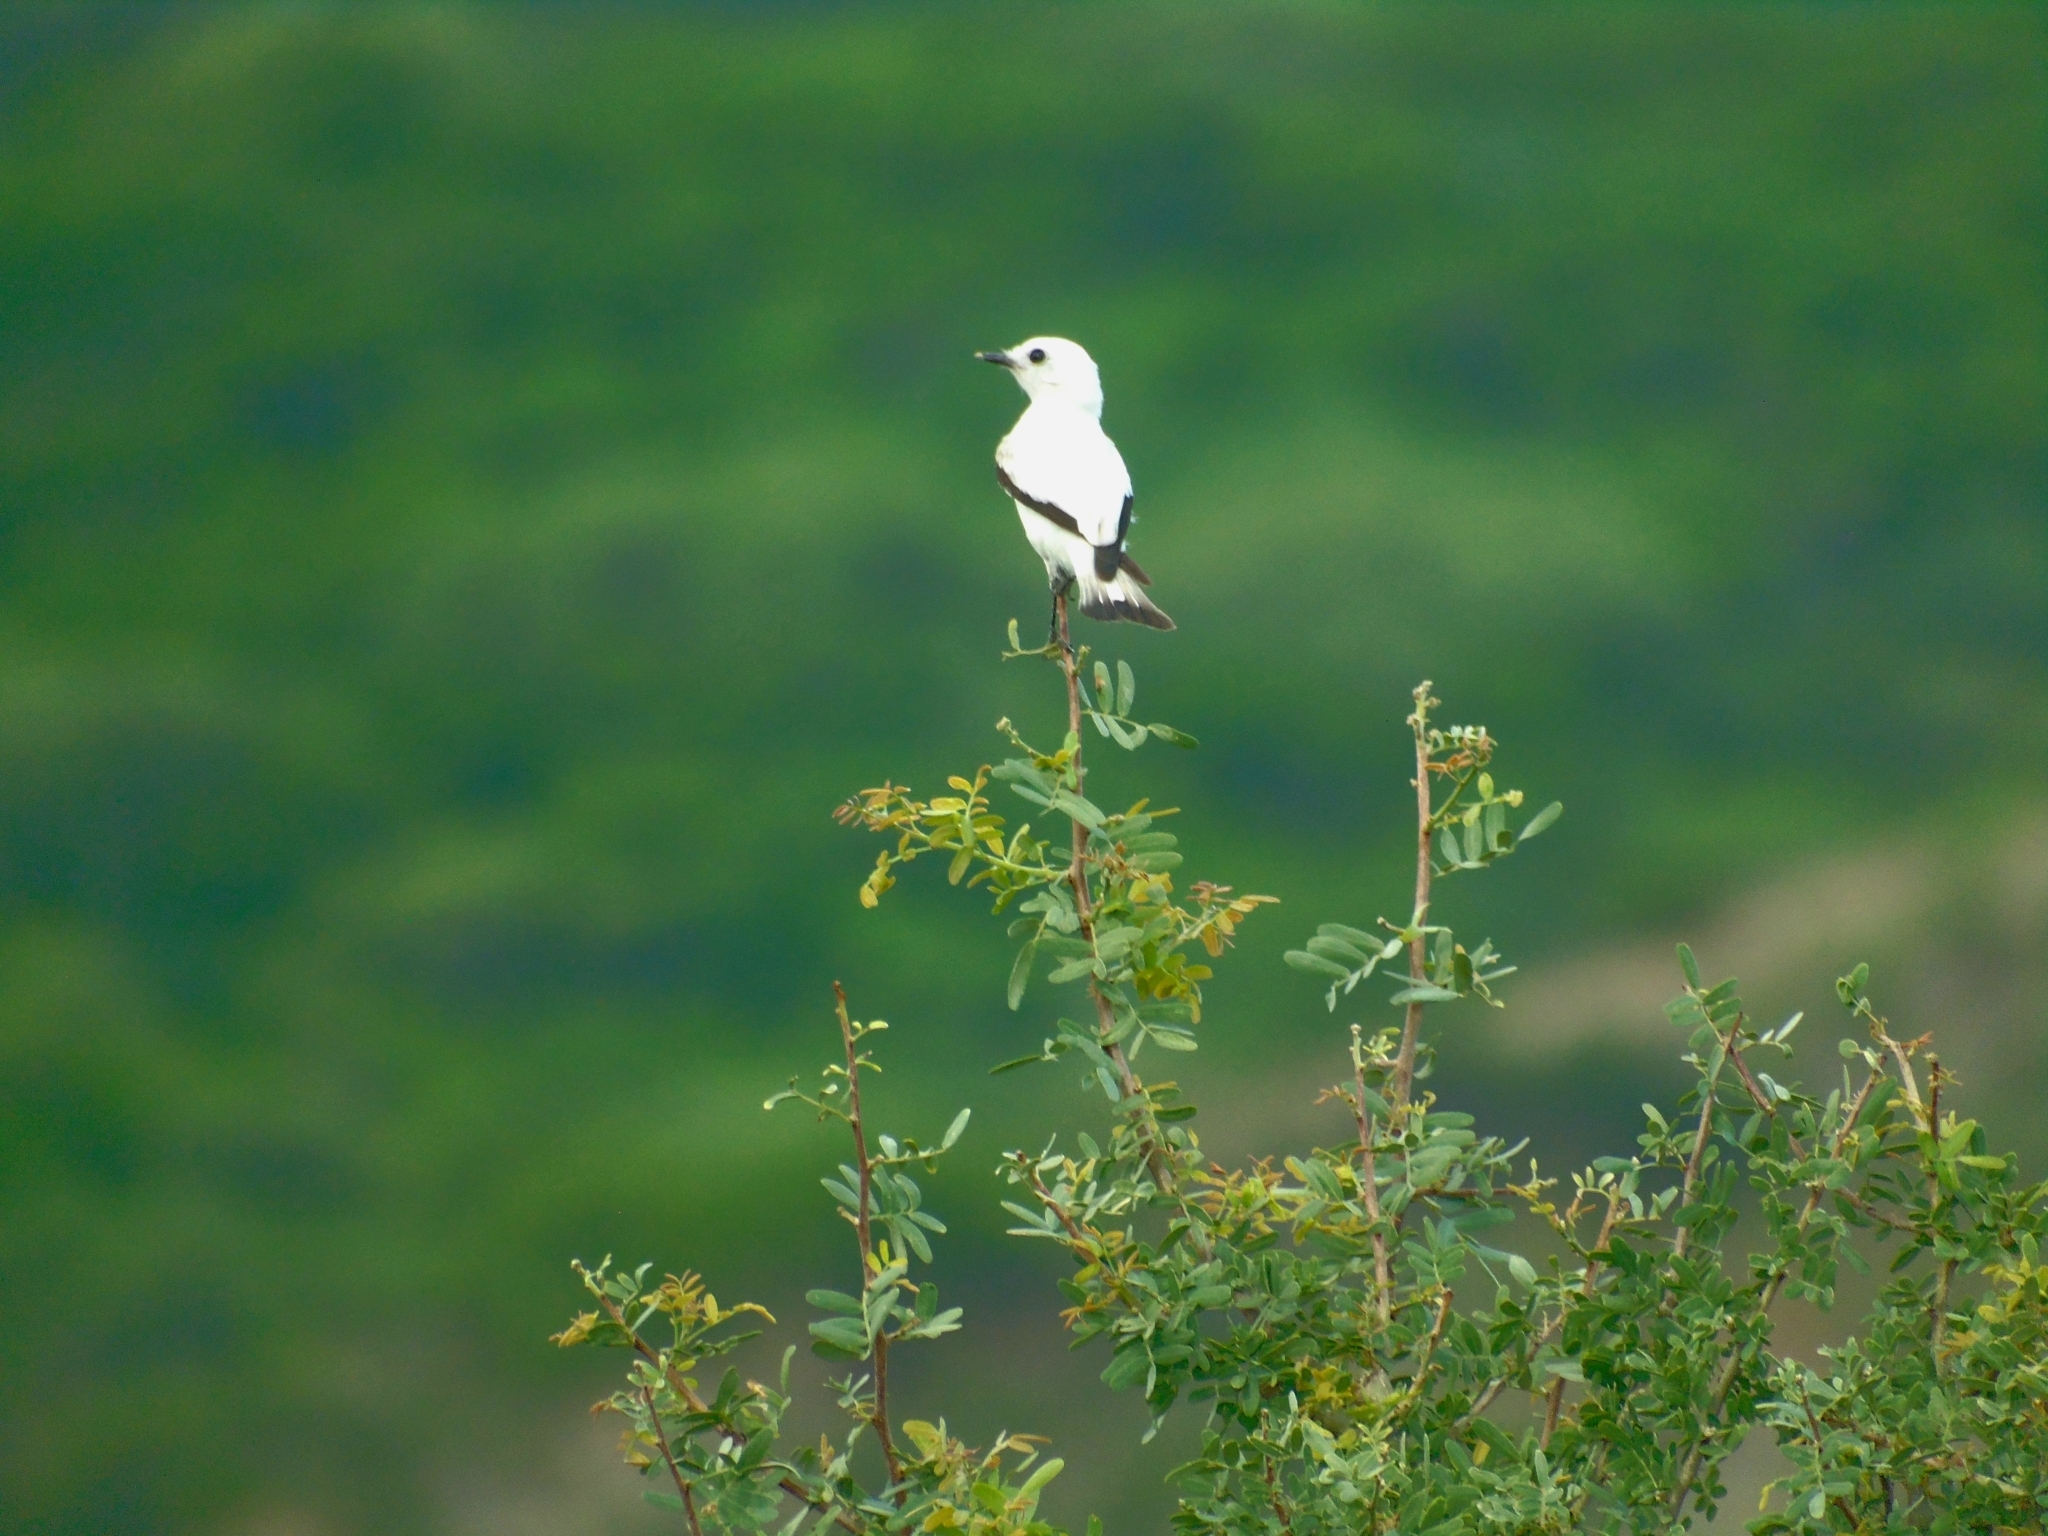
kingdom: Animalia
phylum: Chordata
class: Aves
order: Passeriformes
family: Tyrannidae
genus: Xolmis
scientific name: Xolmis irupero
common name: White monjita
